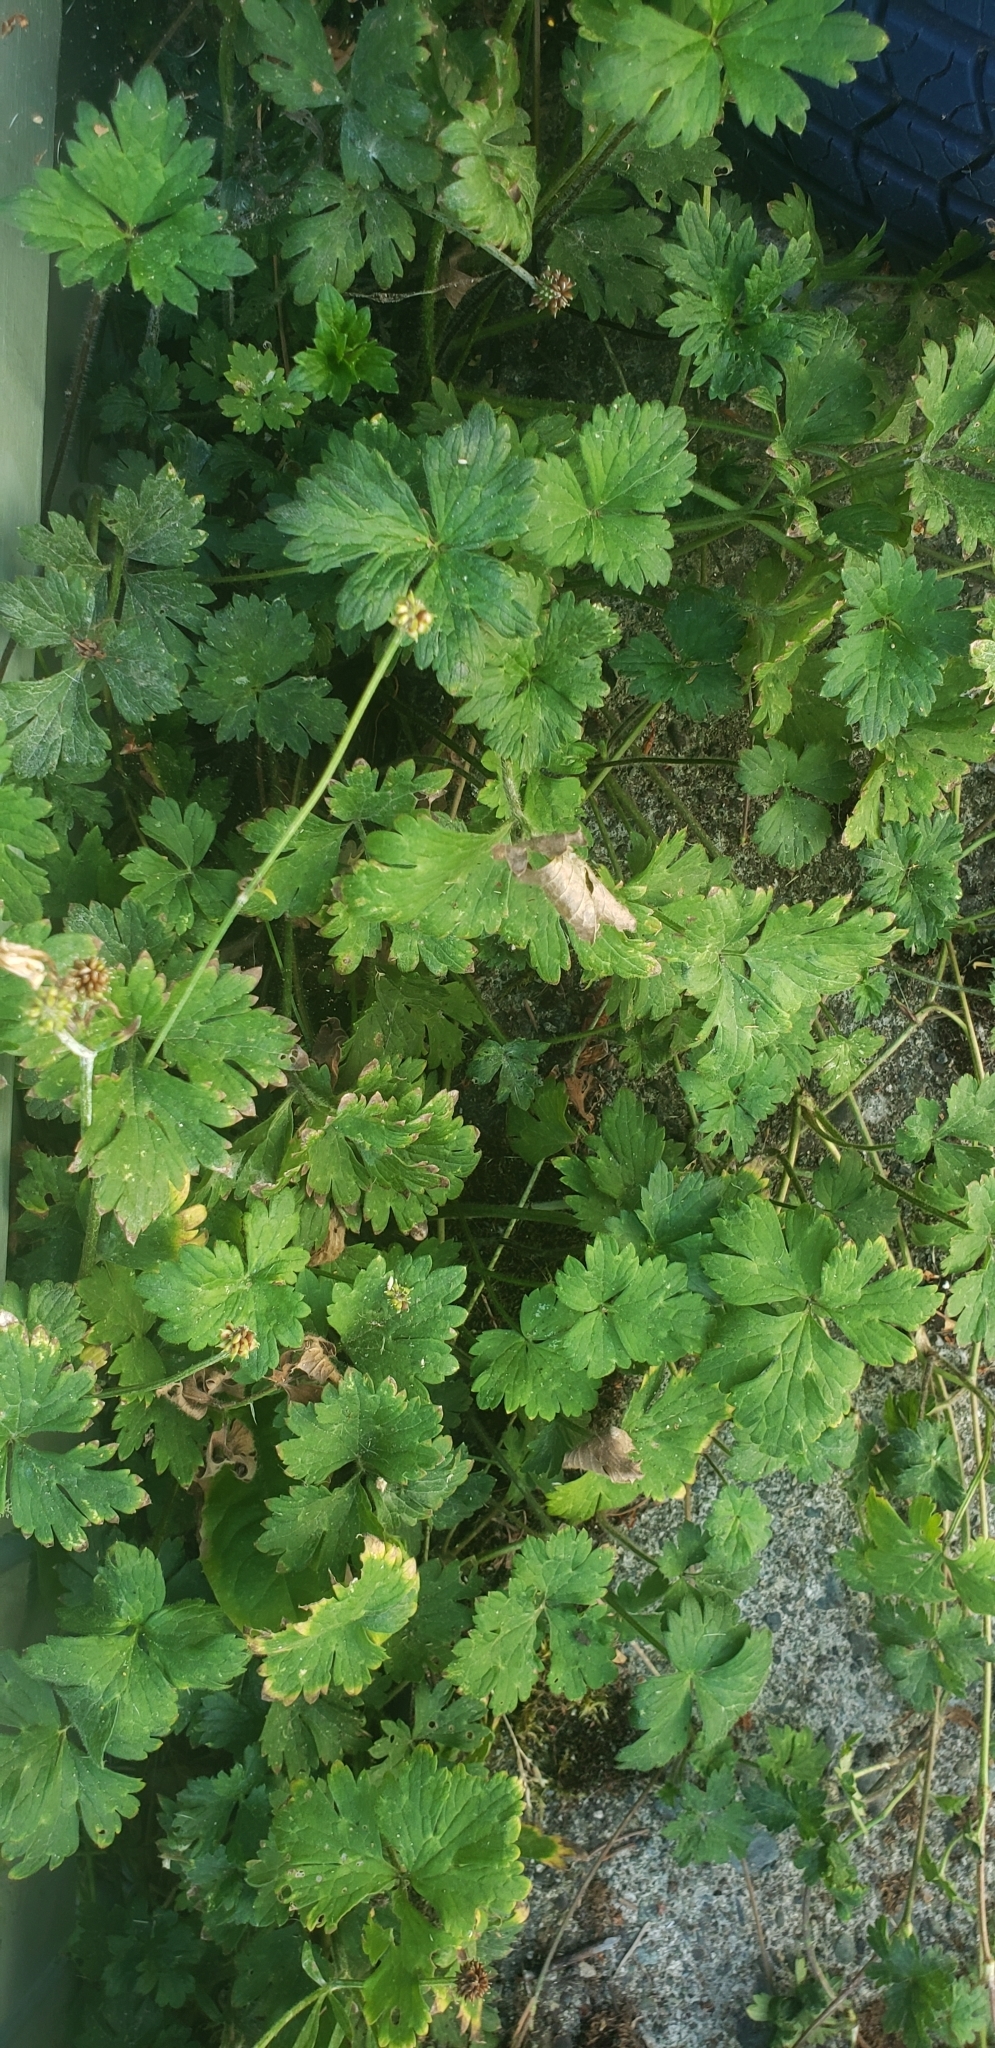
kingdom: Plantae
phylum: Tracheophyta
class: Magnoliopsida
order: Ranunculales
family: Ranunculaceae
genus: Ranunculus
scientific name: Ranunculus repens
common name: Creeping buttercup
